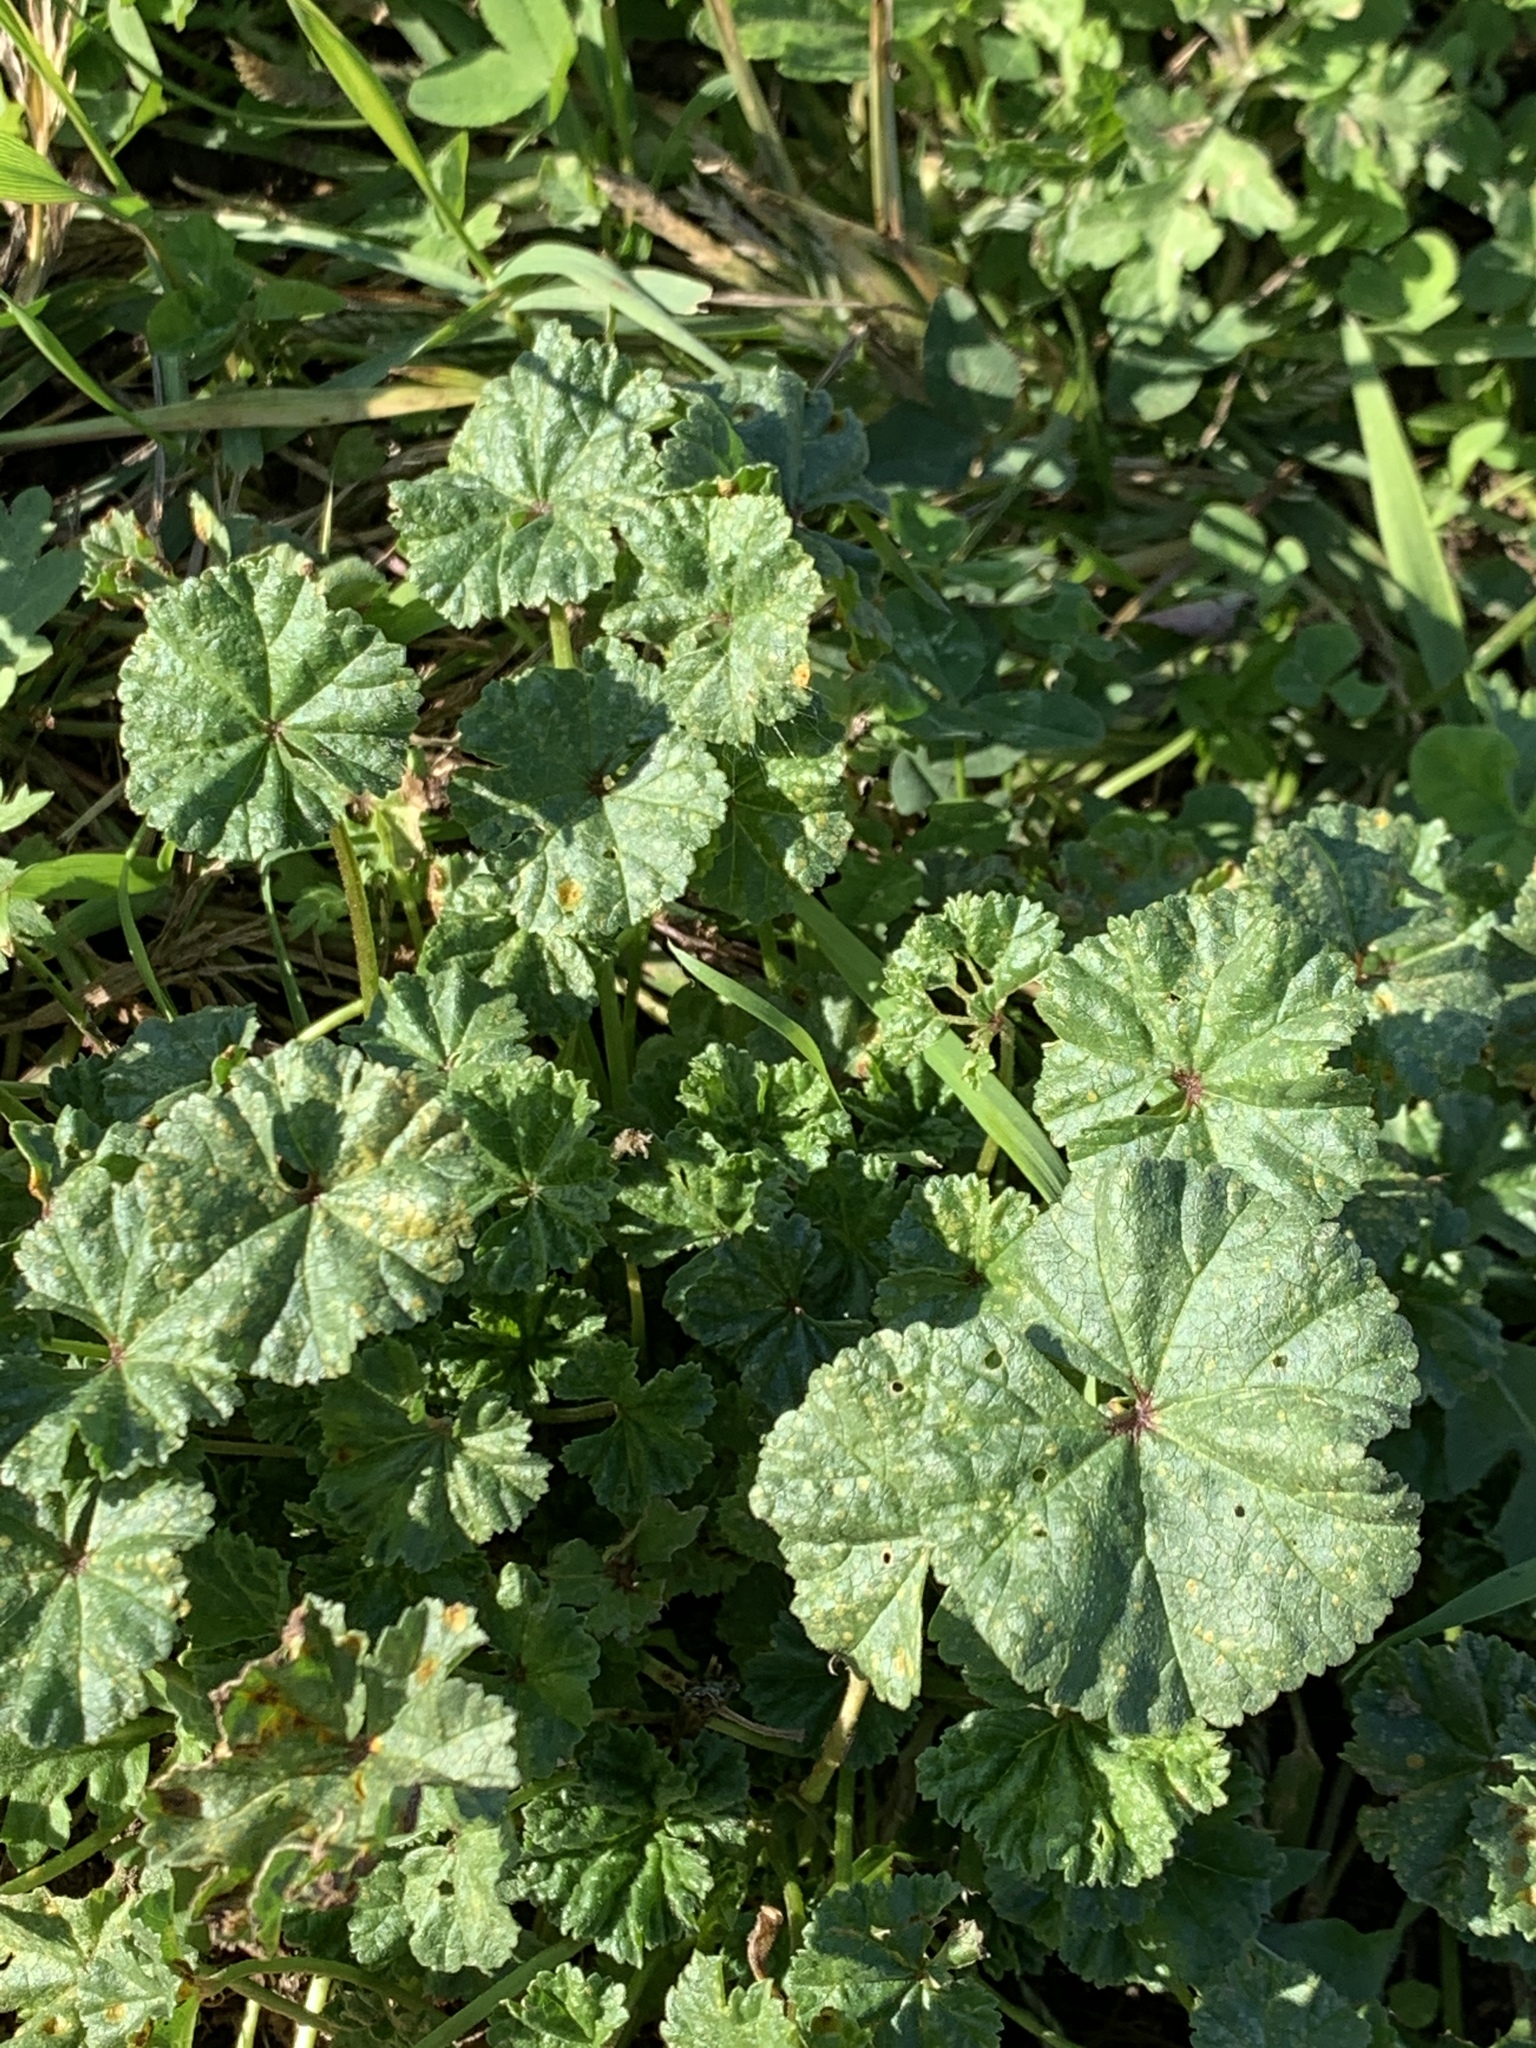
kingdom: Plantae
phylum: Tracheophyta
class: Magnoliopsida
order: Malvales
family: Malvaceae
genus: Malva
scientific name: Malva neglecta
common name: Common mallow
